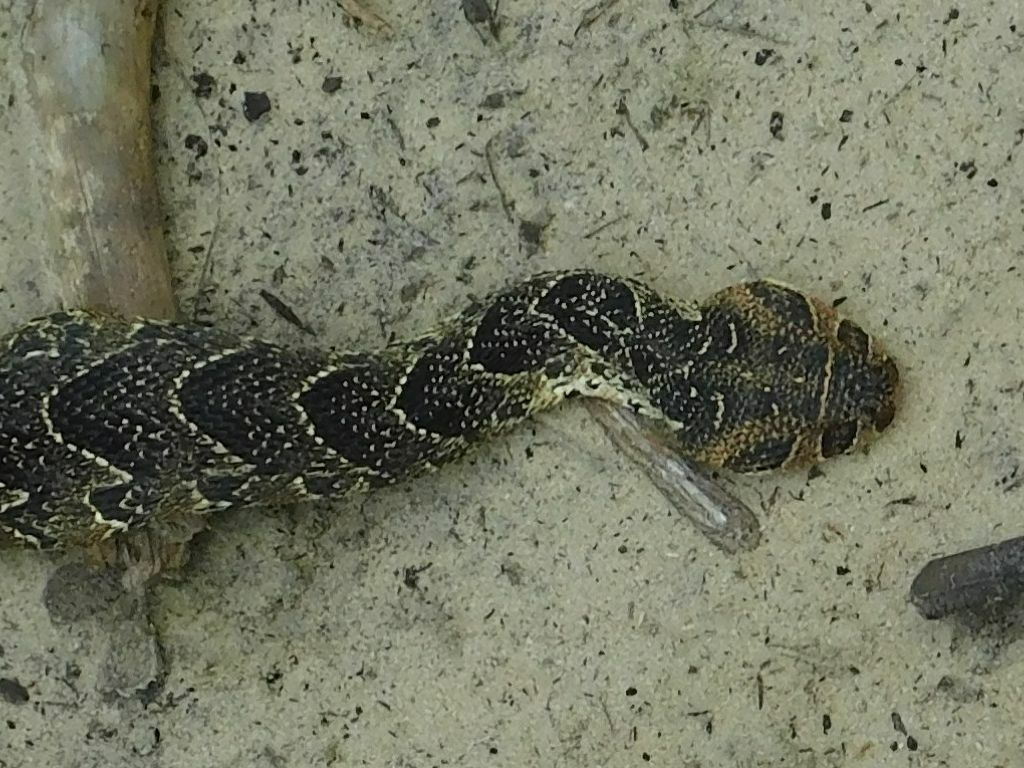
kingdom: Animalia
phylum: Chordata
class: Squamata
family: Viperidae
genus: Bitis
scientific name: Bitis arietans
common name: Puff adder
